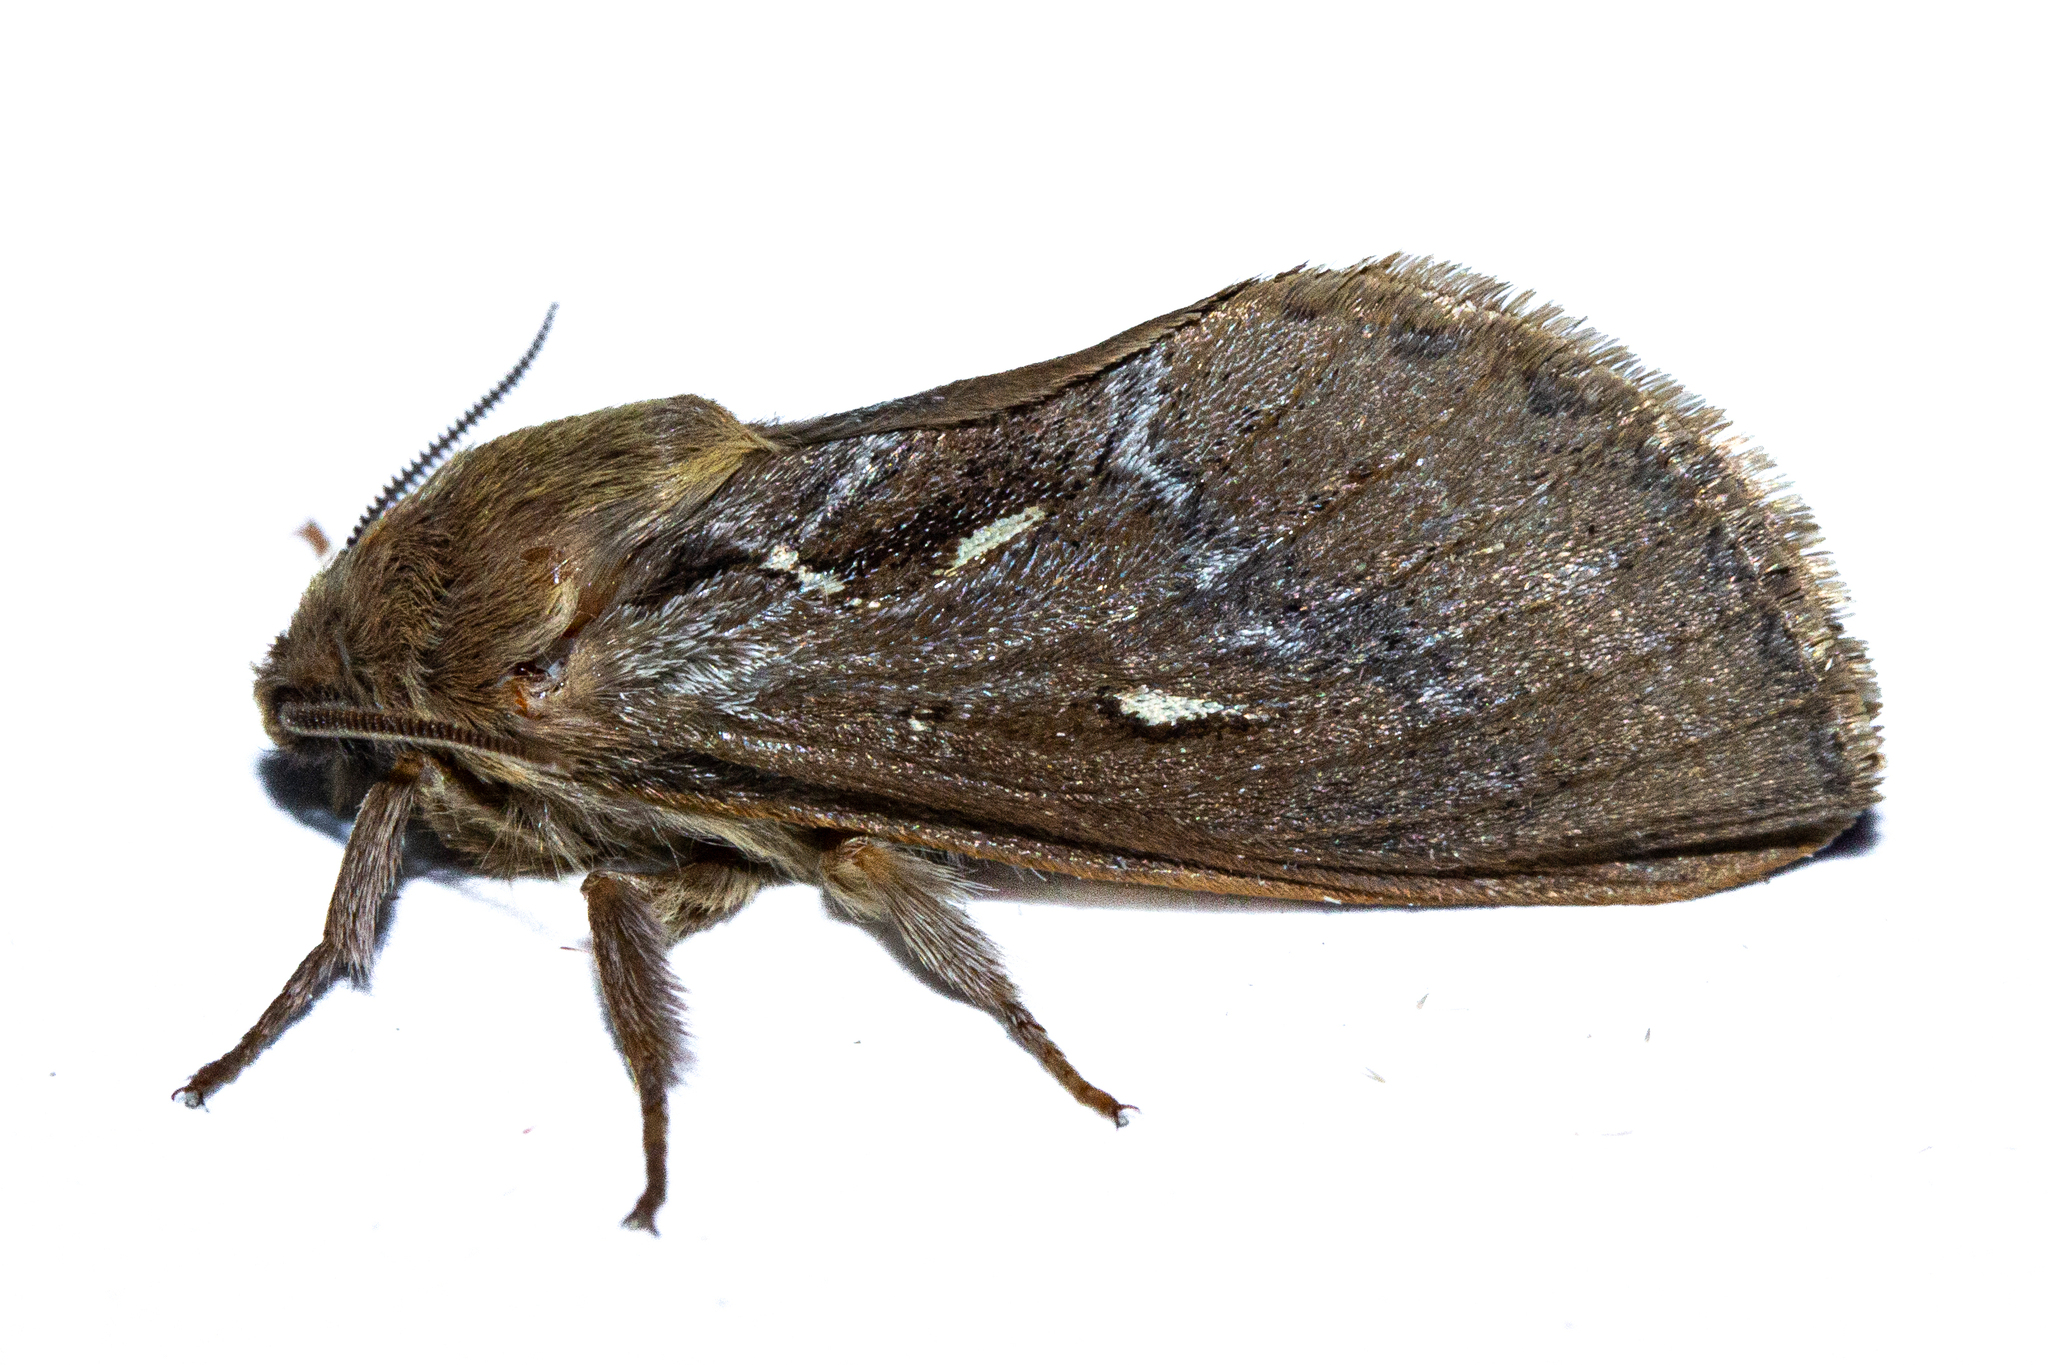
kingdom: Animalia
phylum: Arthropoda
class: Insecta
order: Lepidoptera
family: Hepialidae
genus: Dioxycanus
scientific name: Dioxycanus fusca
